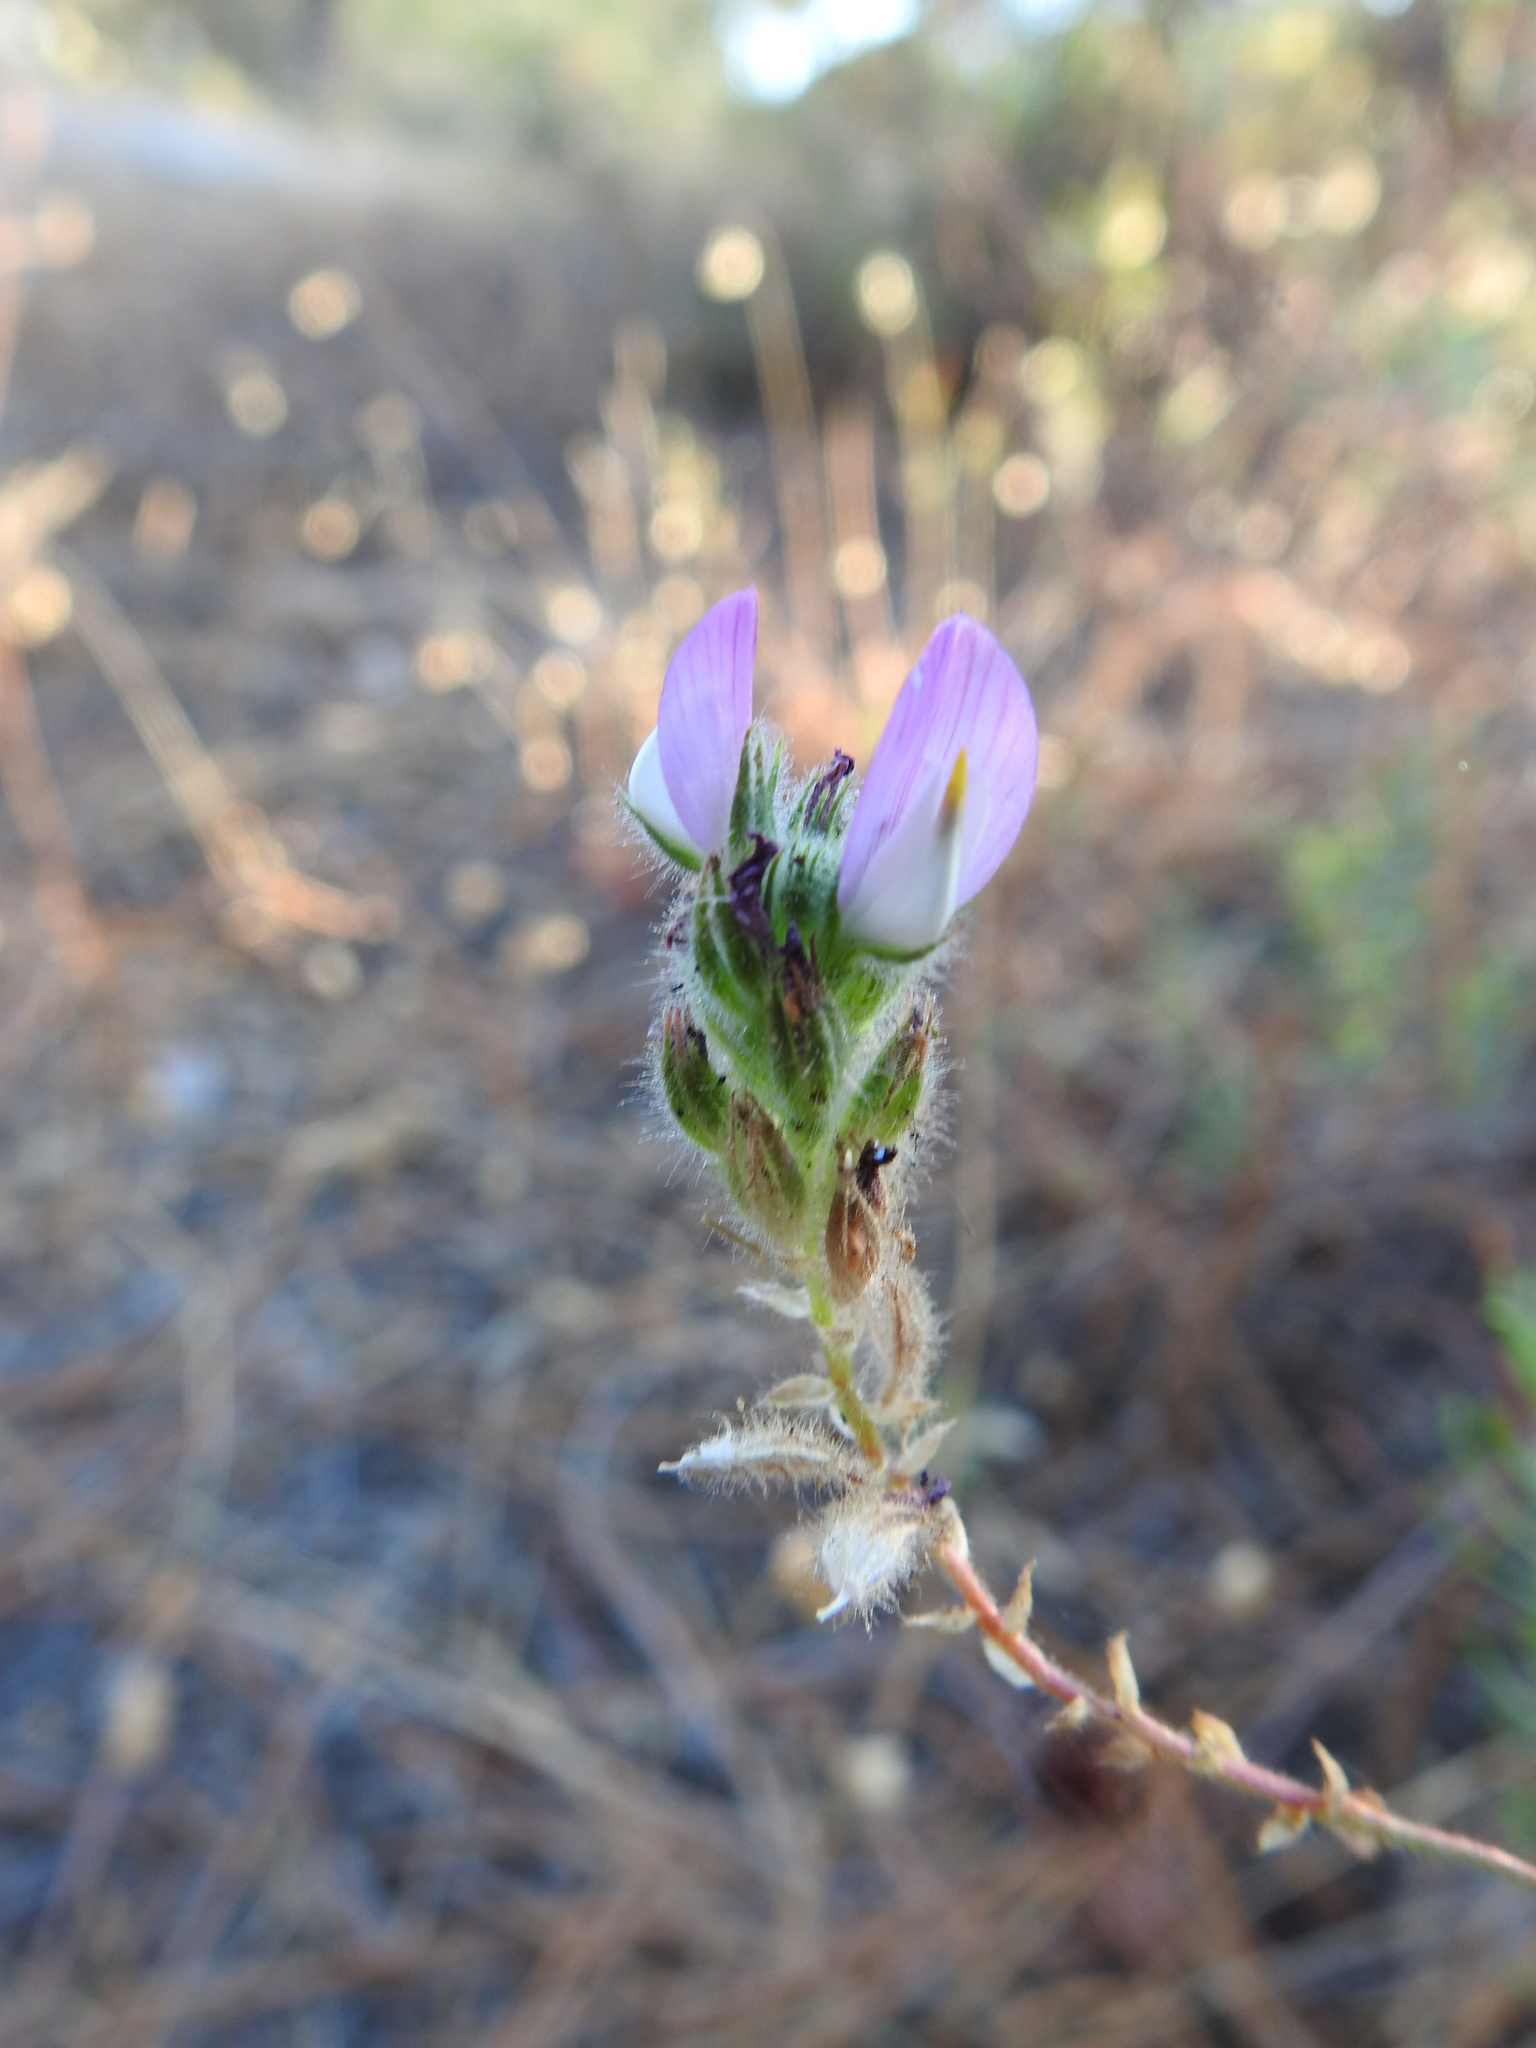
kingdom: Plantae
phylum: Tracheophyta
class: Magnoliopsida
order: Fabales
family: Fabaceae
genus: Ononis
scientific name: Ononis baetica
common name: Andalucian restharrow
